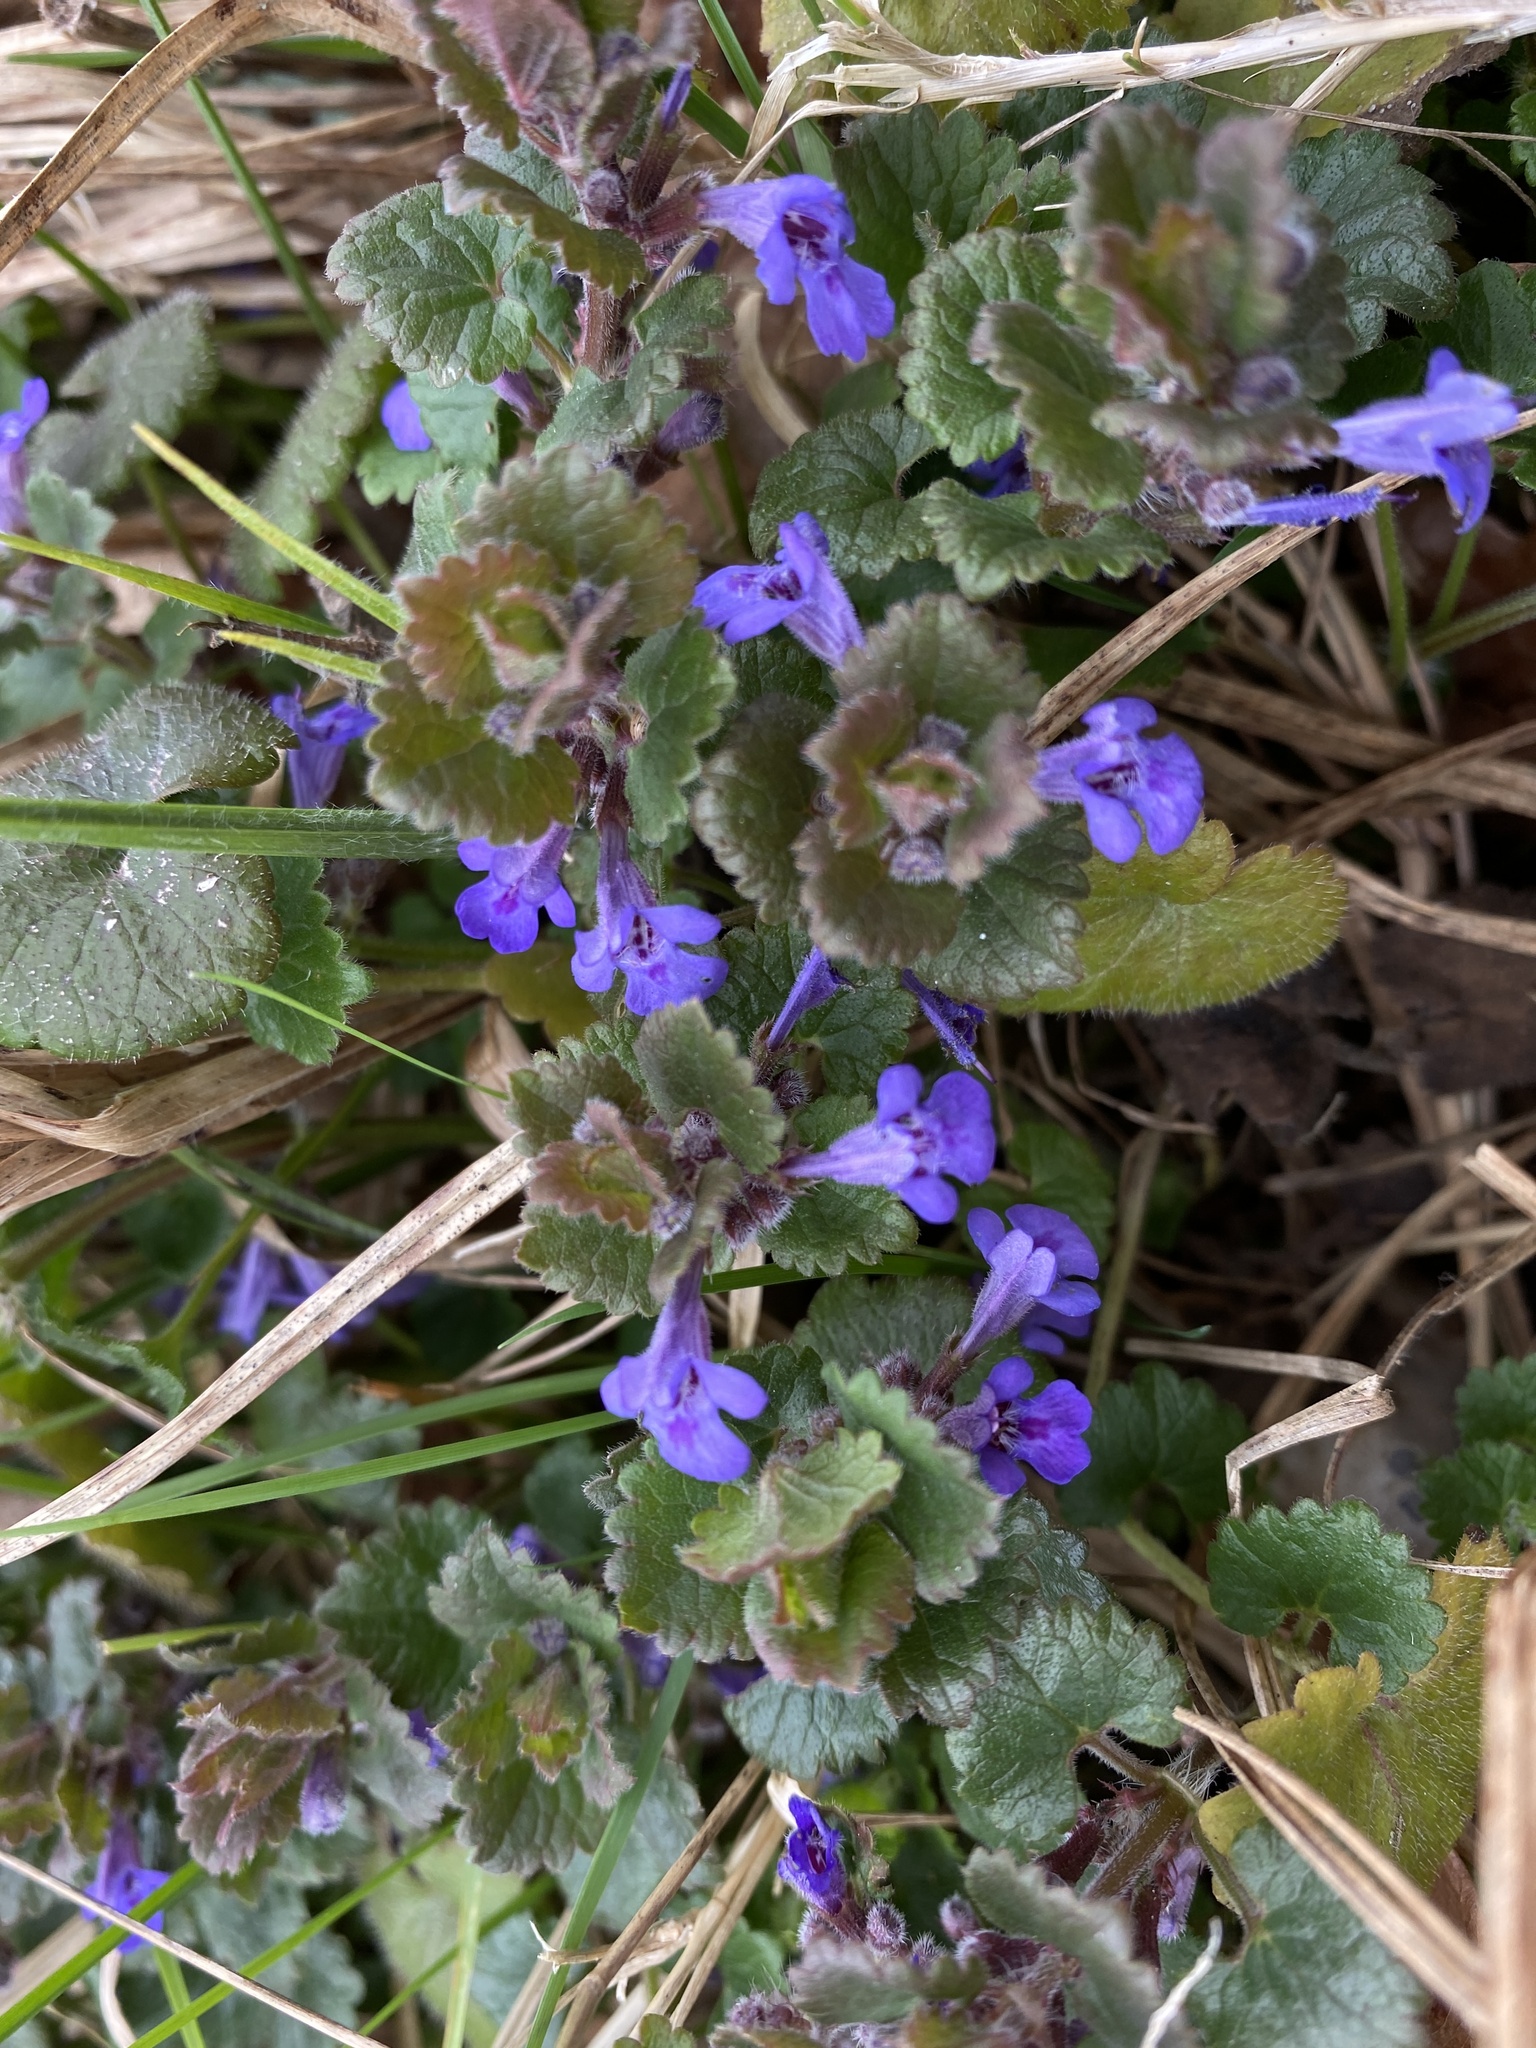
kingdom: Plantae
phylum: Tracheophyta
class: Magnoliopsida
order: Lamiales
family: Lamiaceae
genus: Glechoma
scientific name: Glechoma hederacea
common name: Ground ivy
